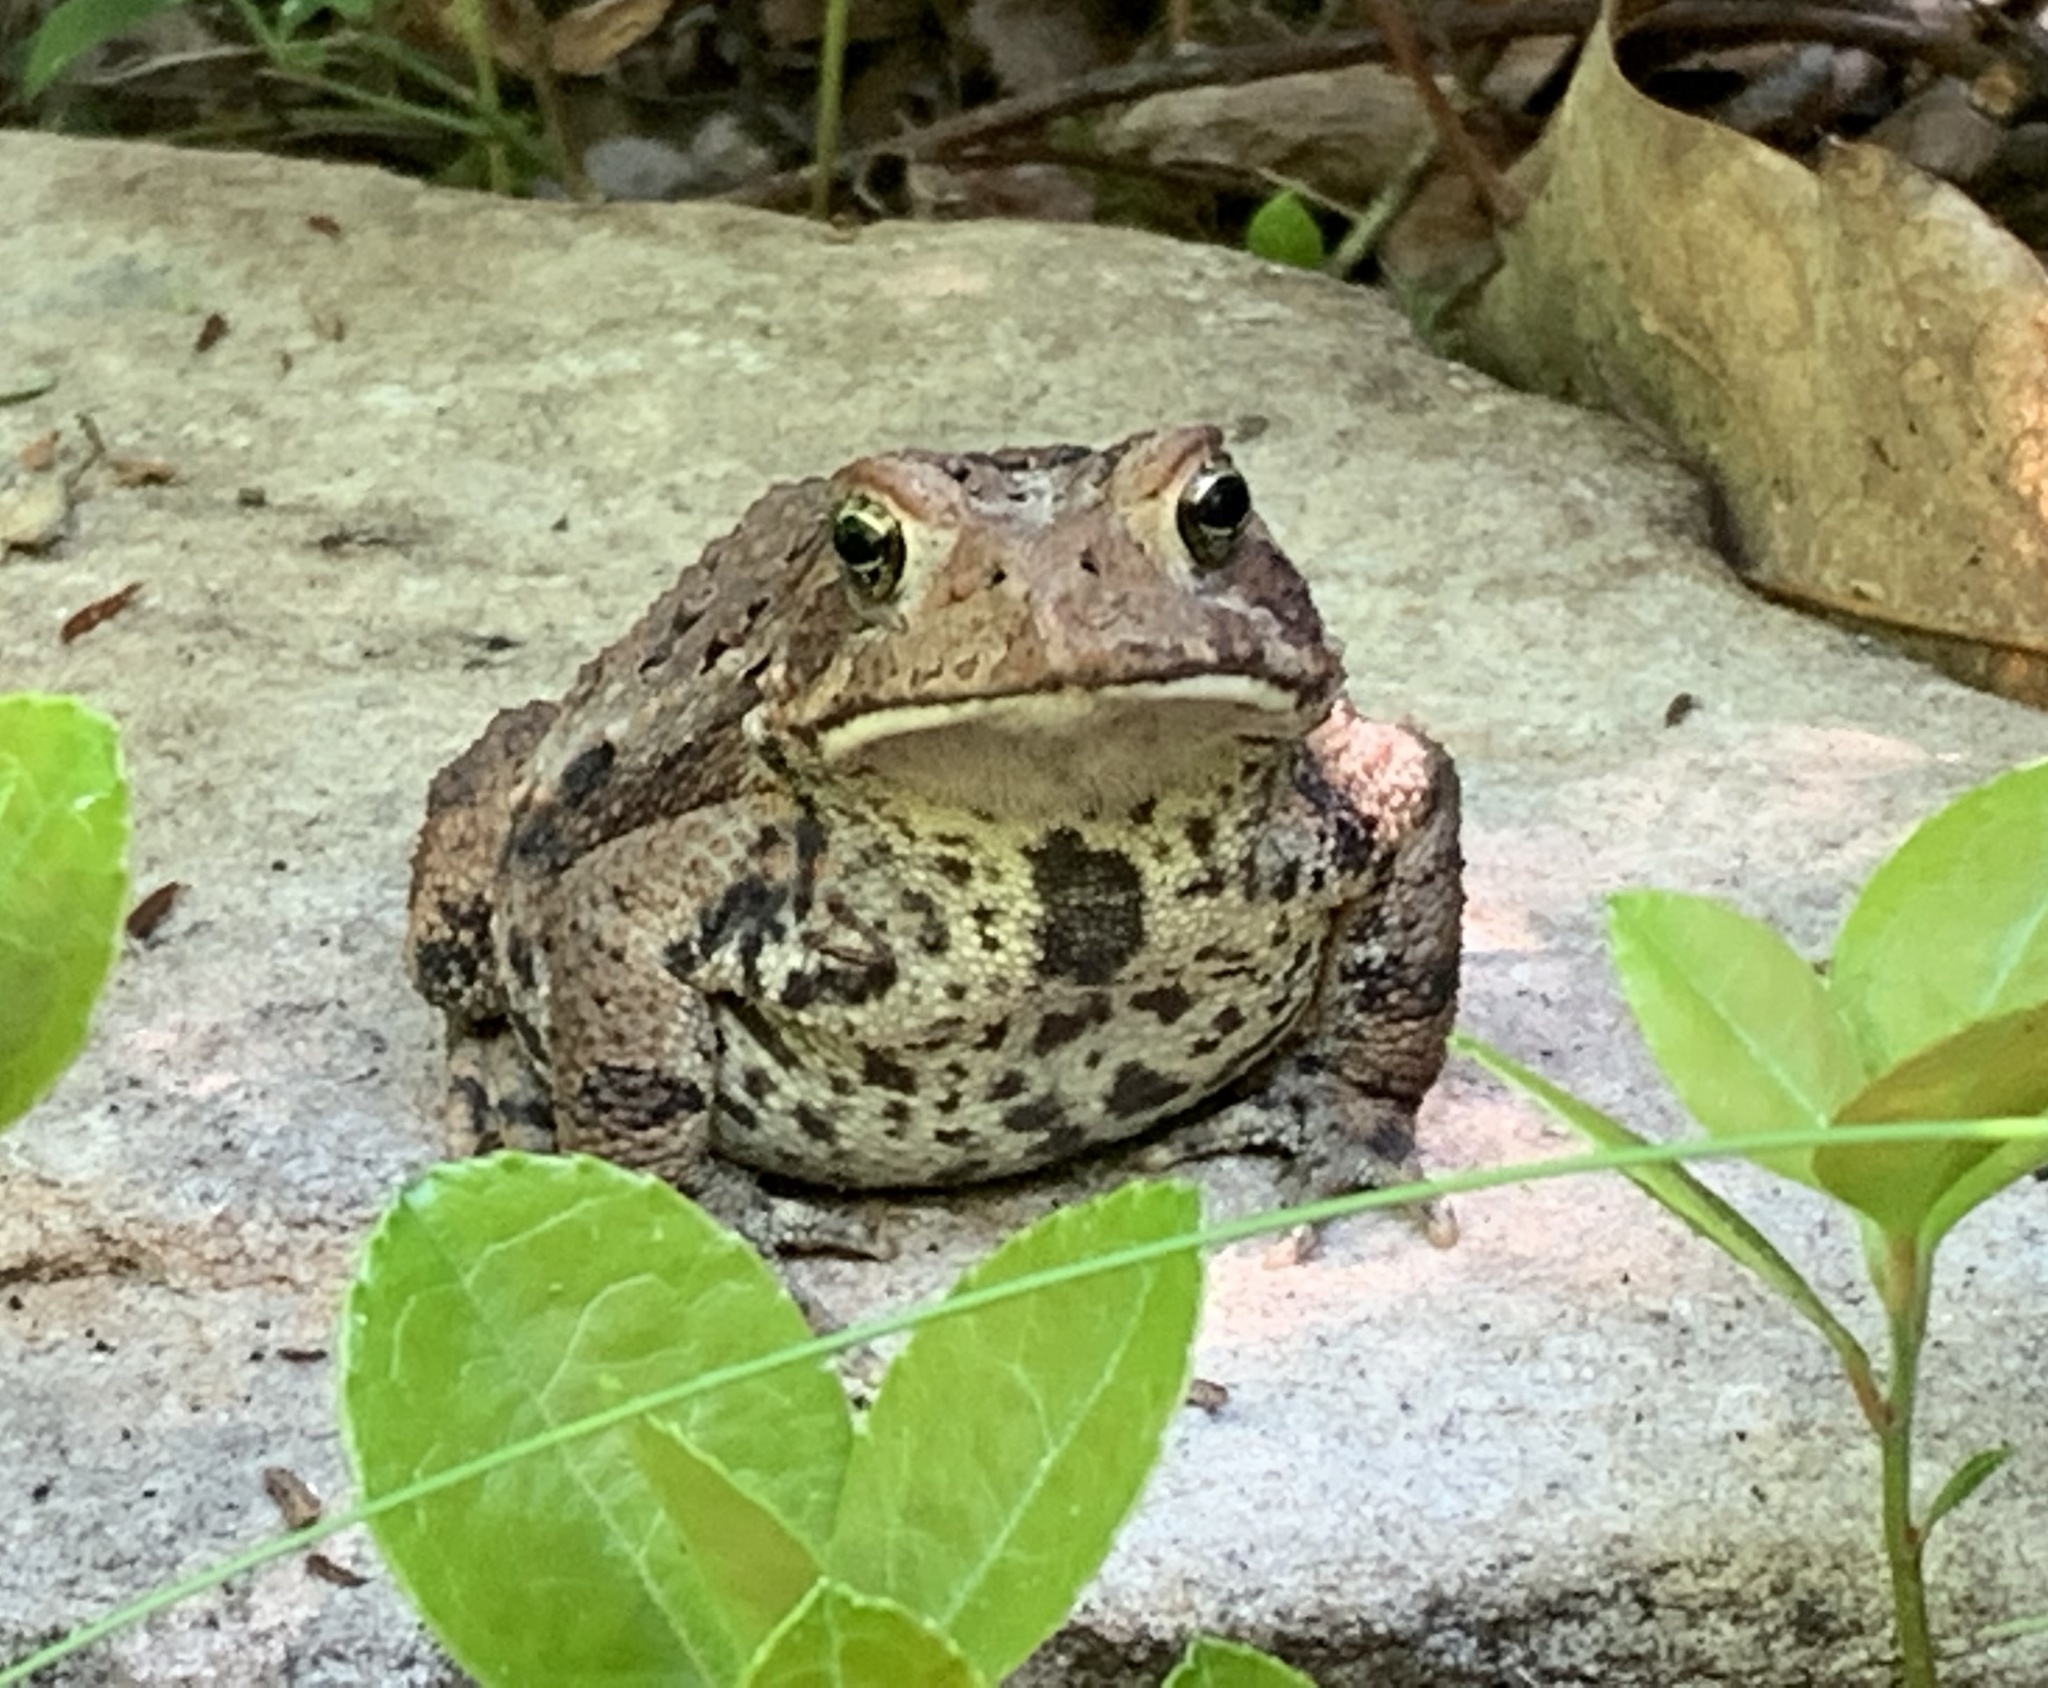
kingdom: Animalia
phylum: Chordata
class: Amphibia
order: Anura
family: Bufonidae
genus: Anaxyrus
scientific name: Anaxyrus americanus
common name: American toad
